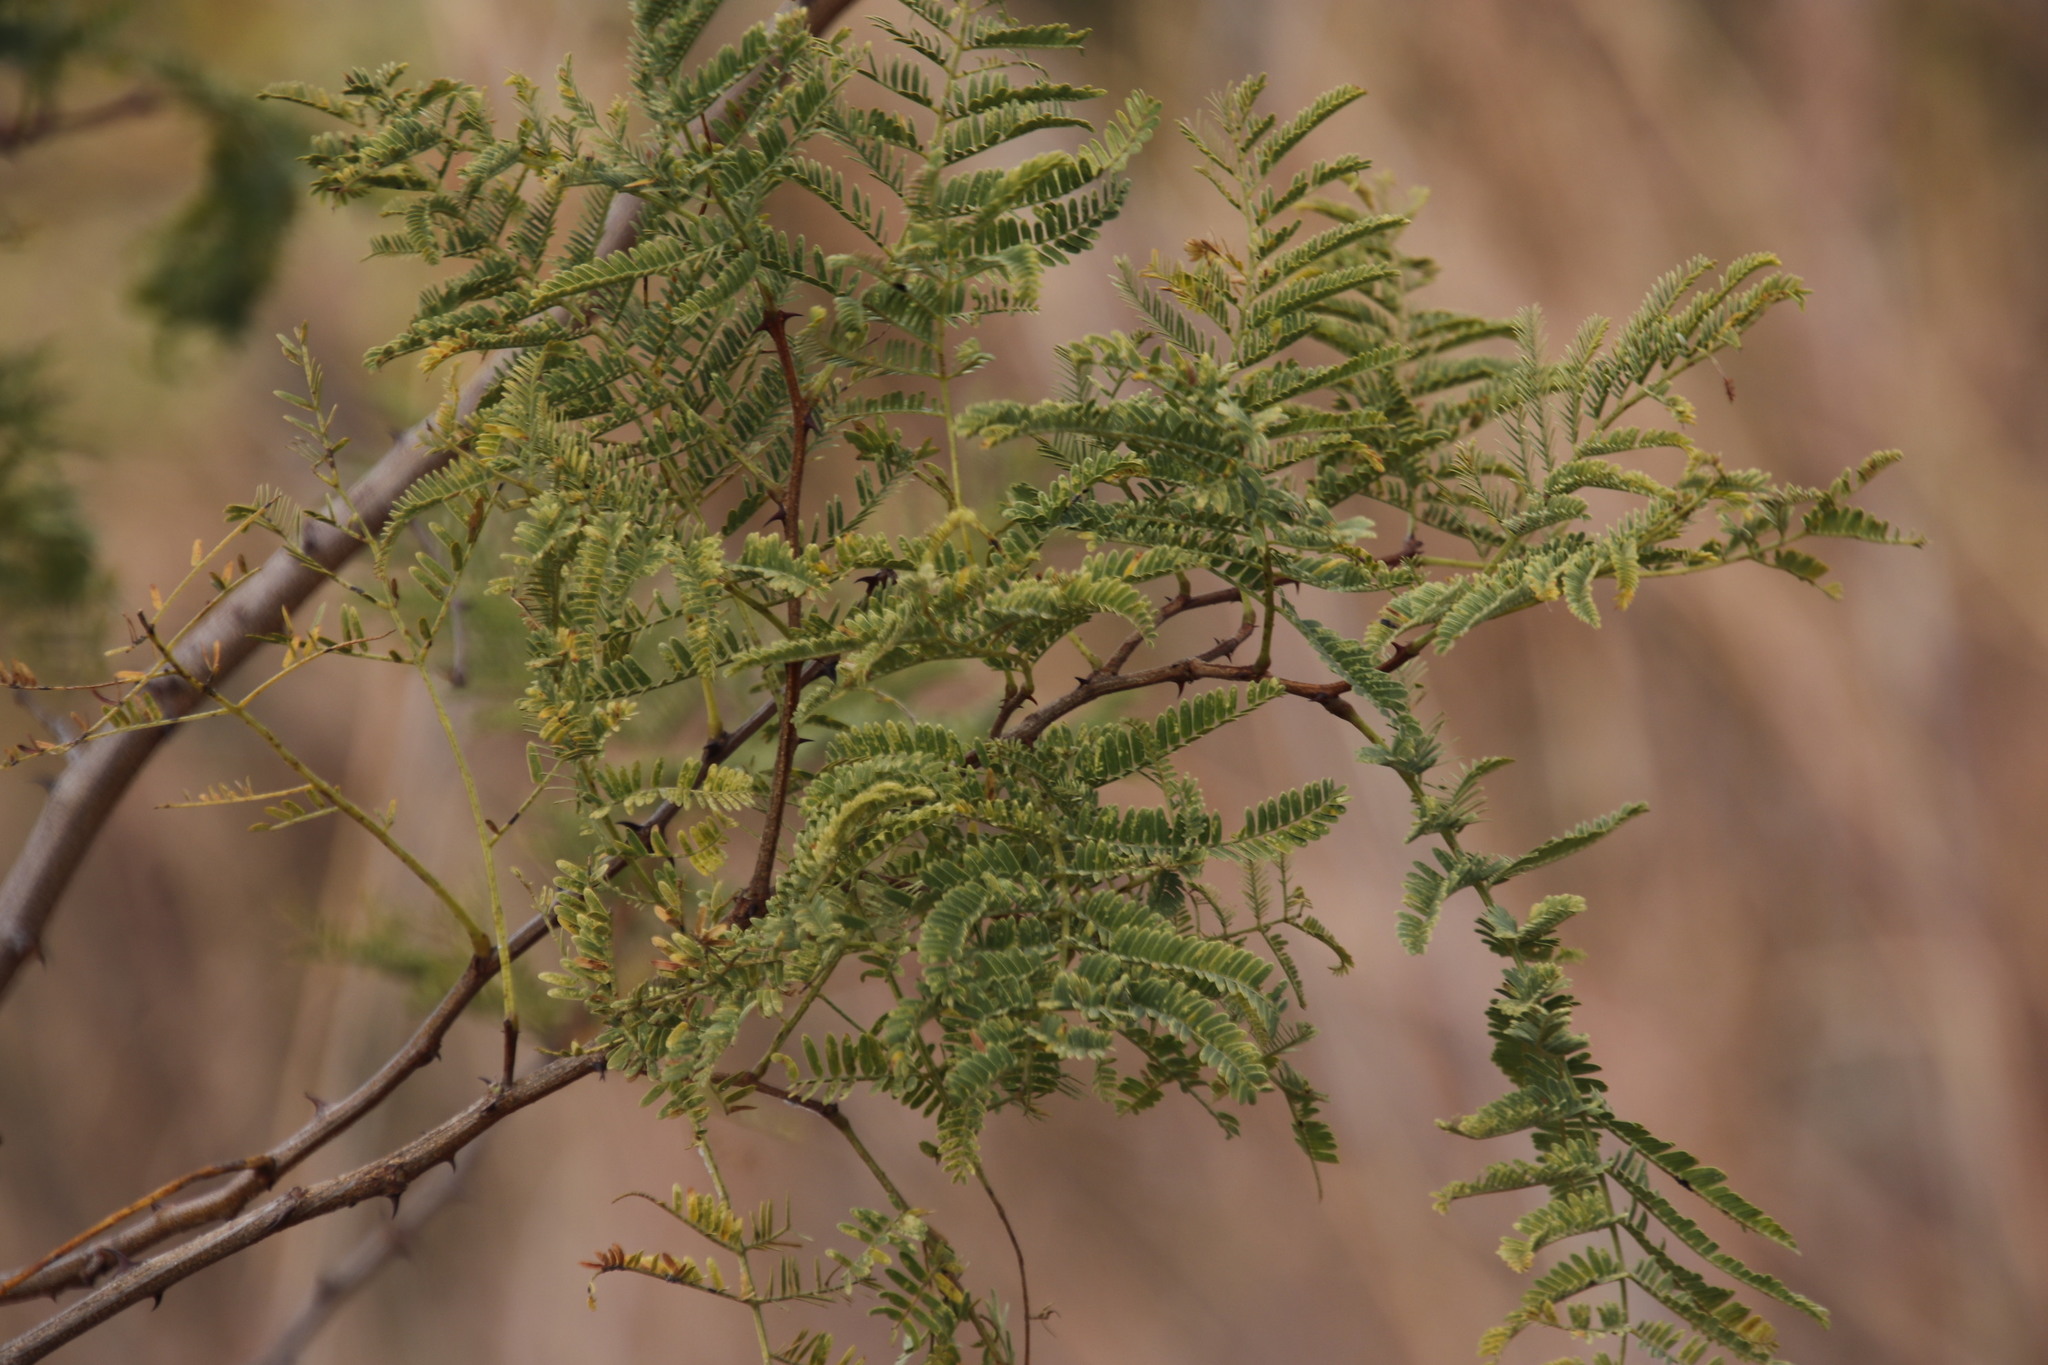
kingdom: Plantae
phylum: Tracheophyta
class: Magnoliopsida
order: Fabales
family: Fabaceae
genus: Senegalia
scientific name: Senegalia caffra
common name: Cat thorn
